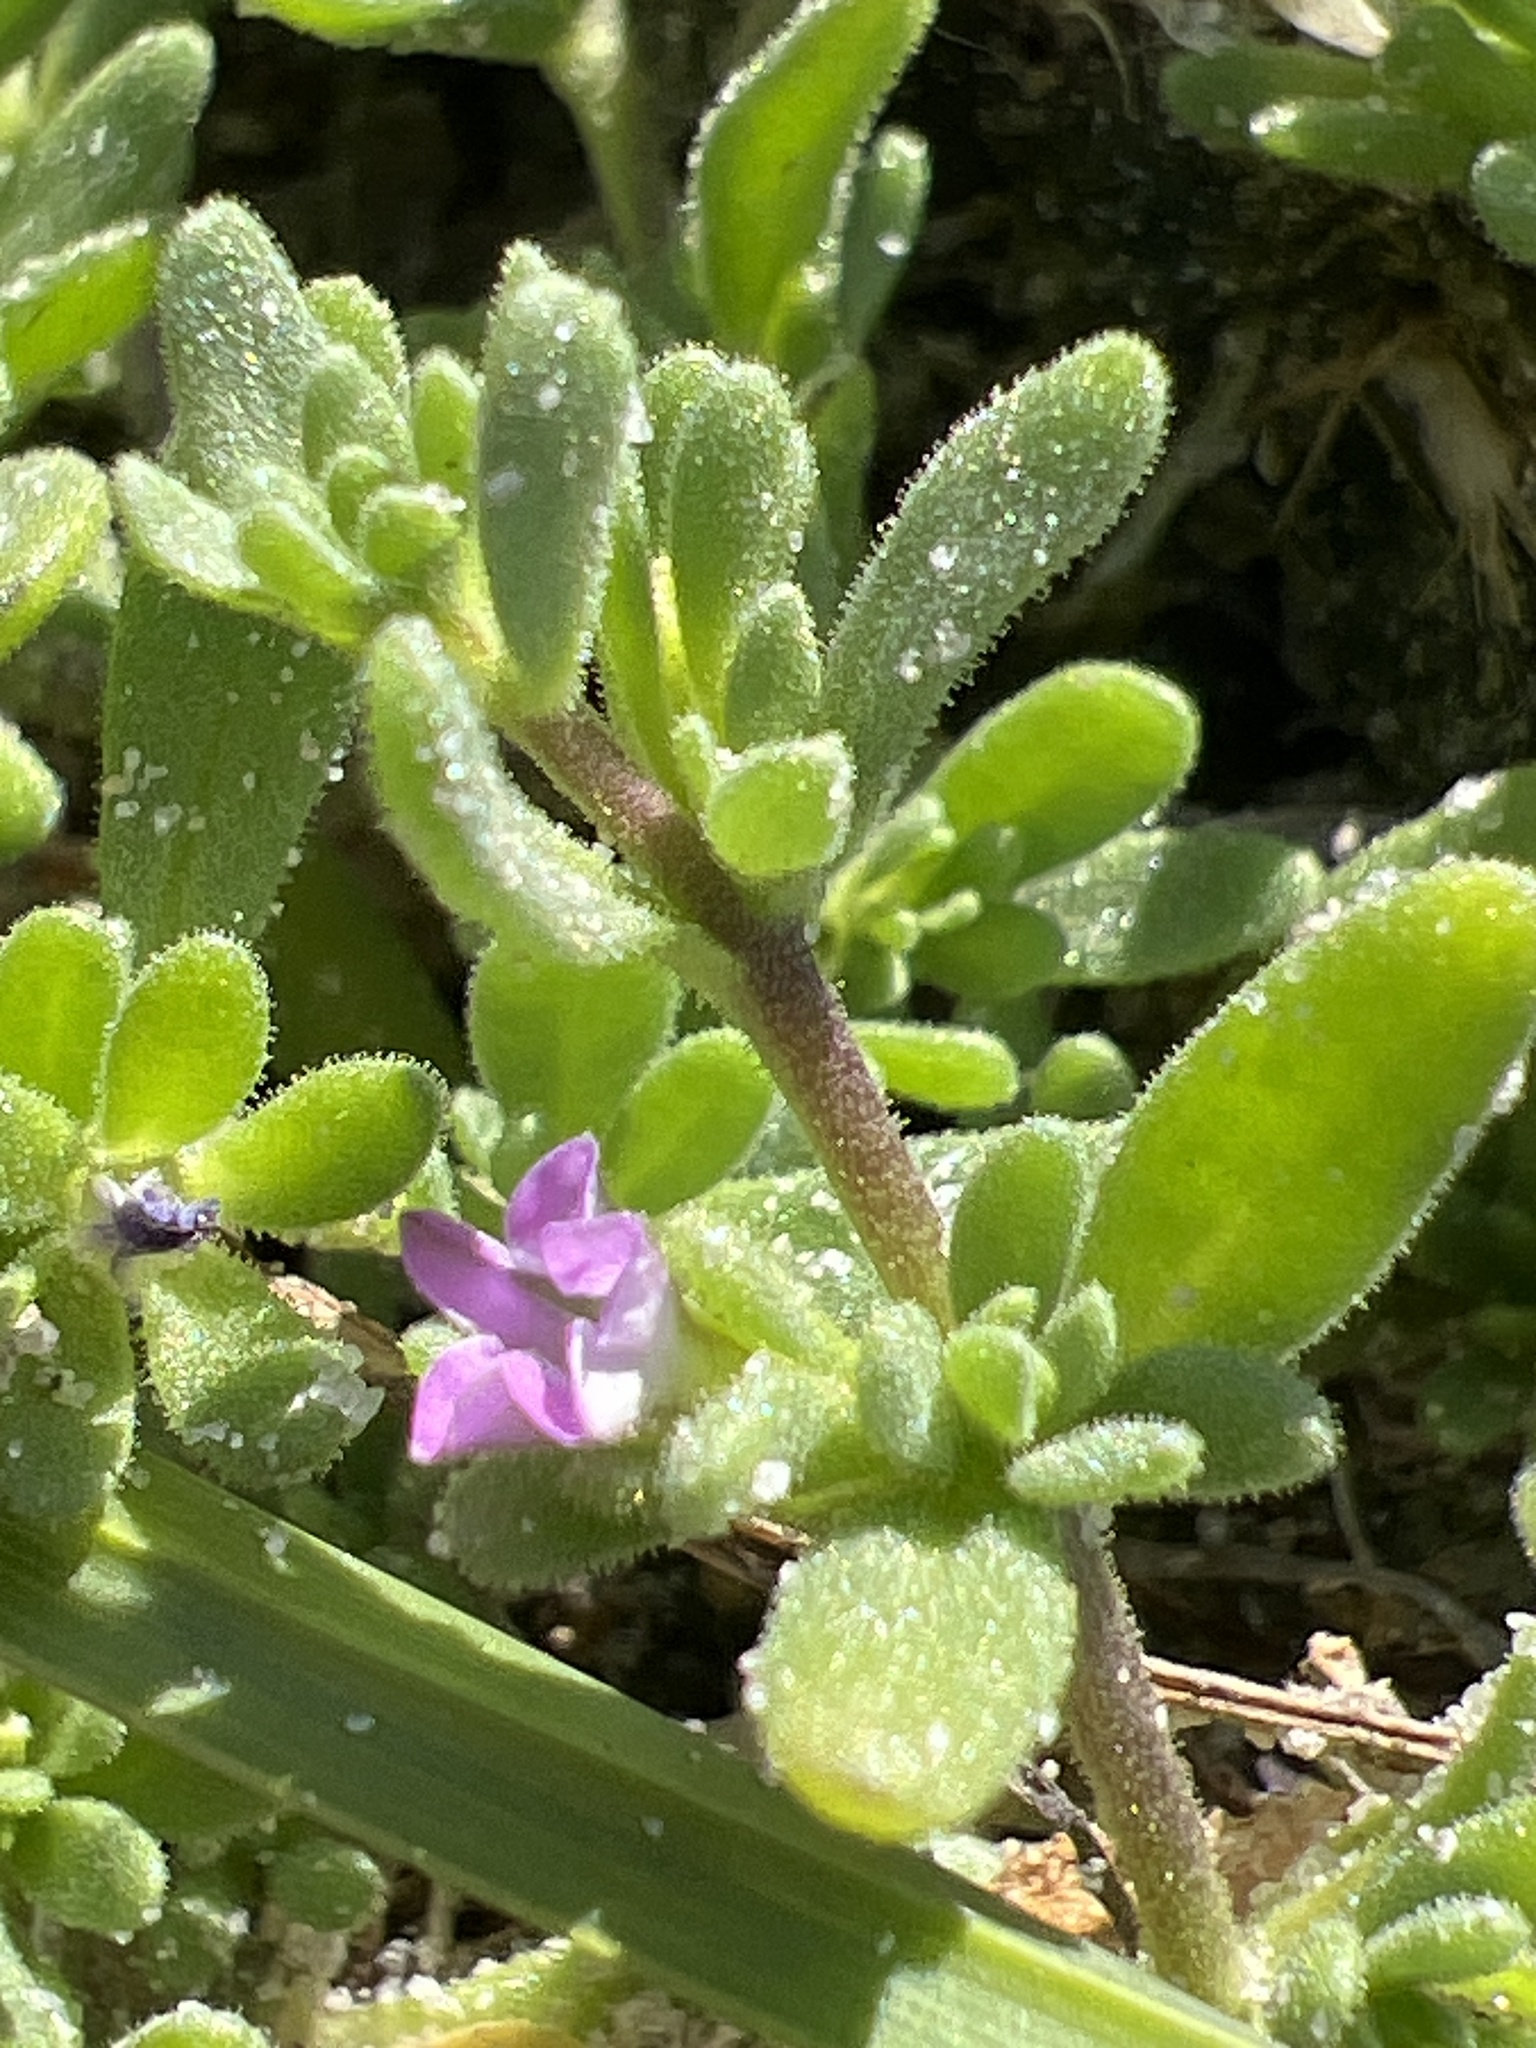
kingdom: Plantae
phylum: Tracheophyta
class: Magnoliopsida
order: Solanales
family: Solanaceae
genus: Calibrachoa
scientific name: Calibrachoa parviflora
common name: Seaside petunia
